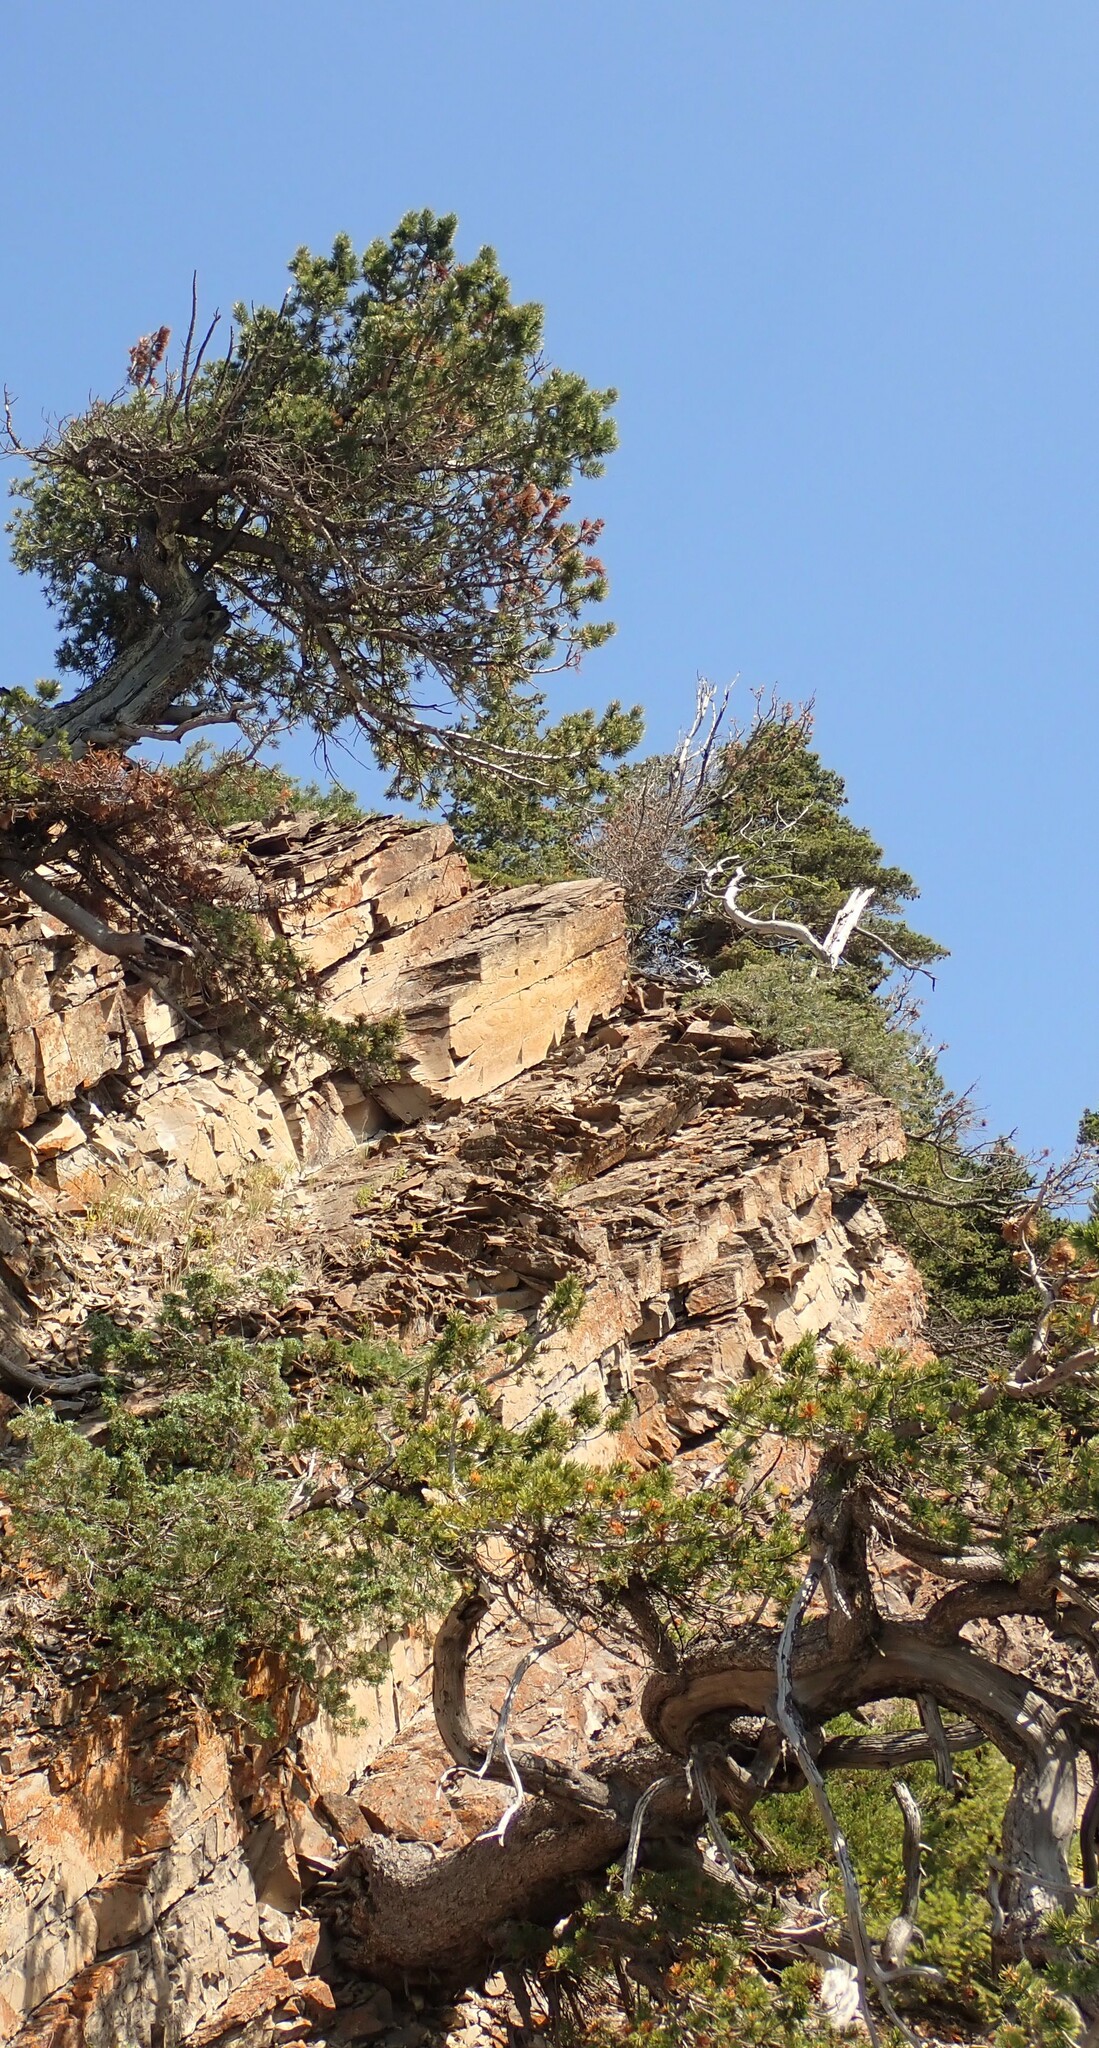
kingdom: Plantae
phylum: Tracheophyta
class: Pinopsida
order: Pinales
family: Pinaceae
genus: Pinus
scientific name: Pinus flexilis
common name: Limber pine
